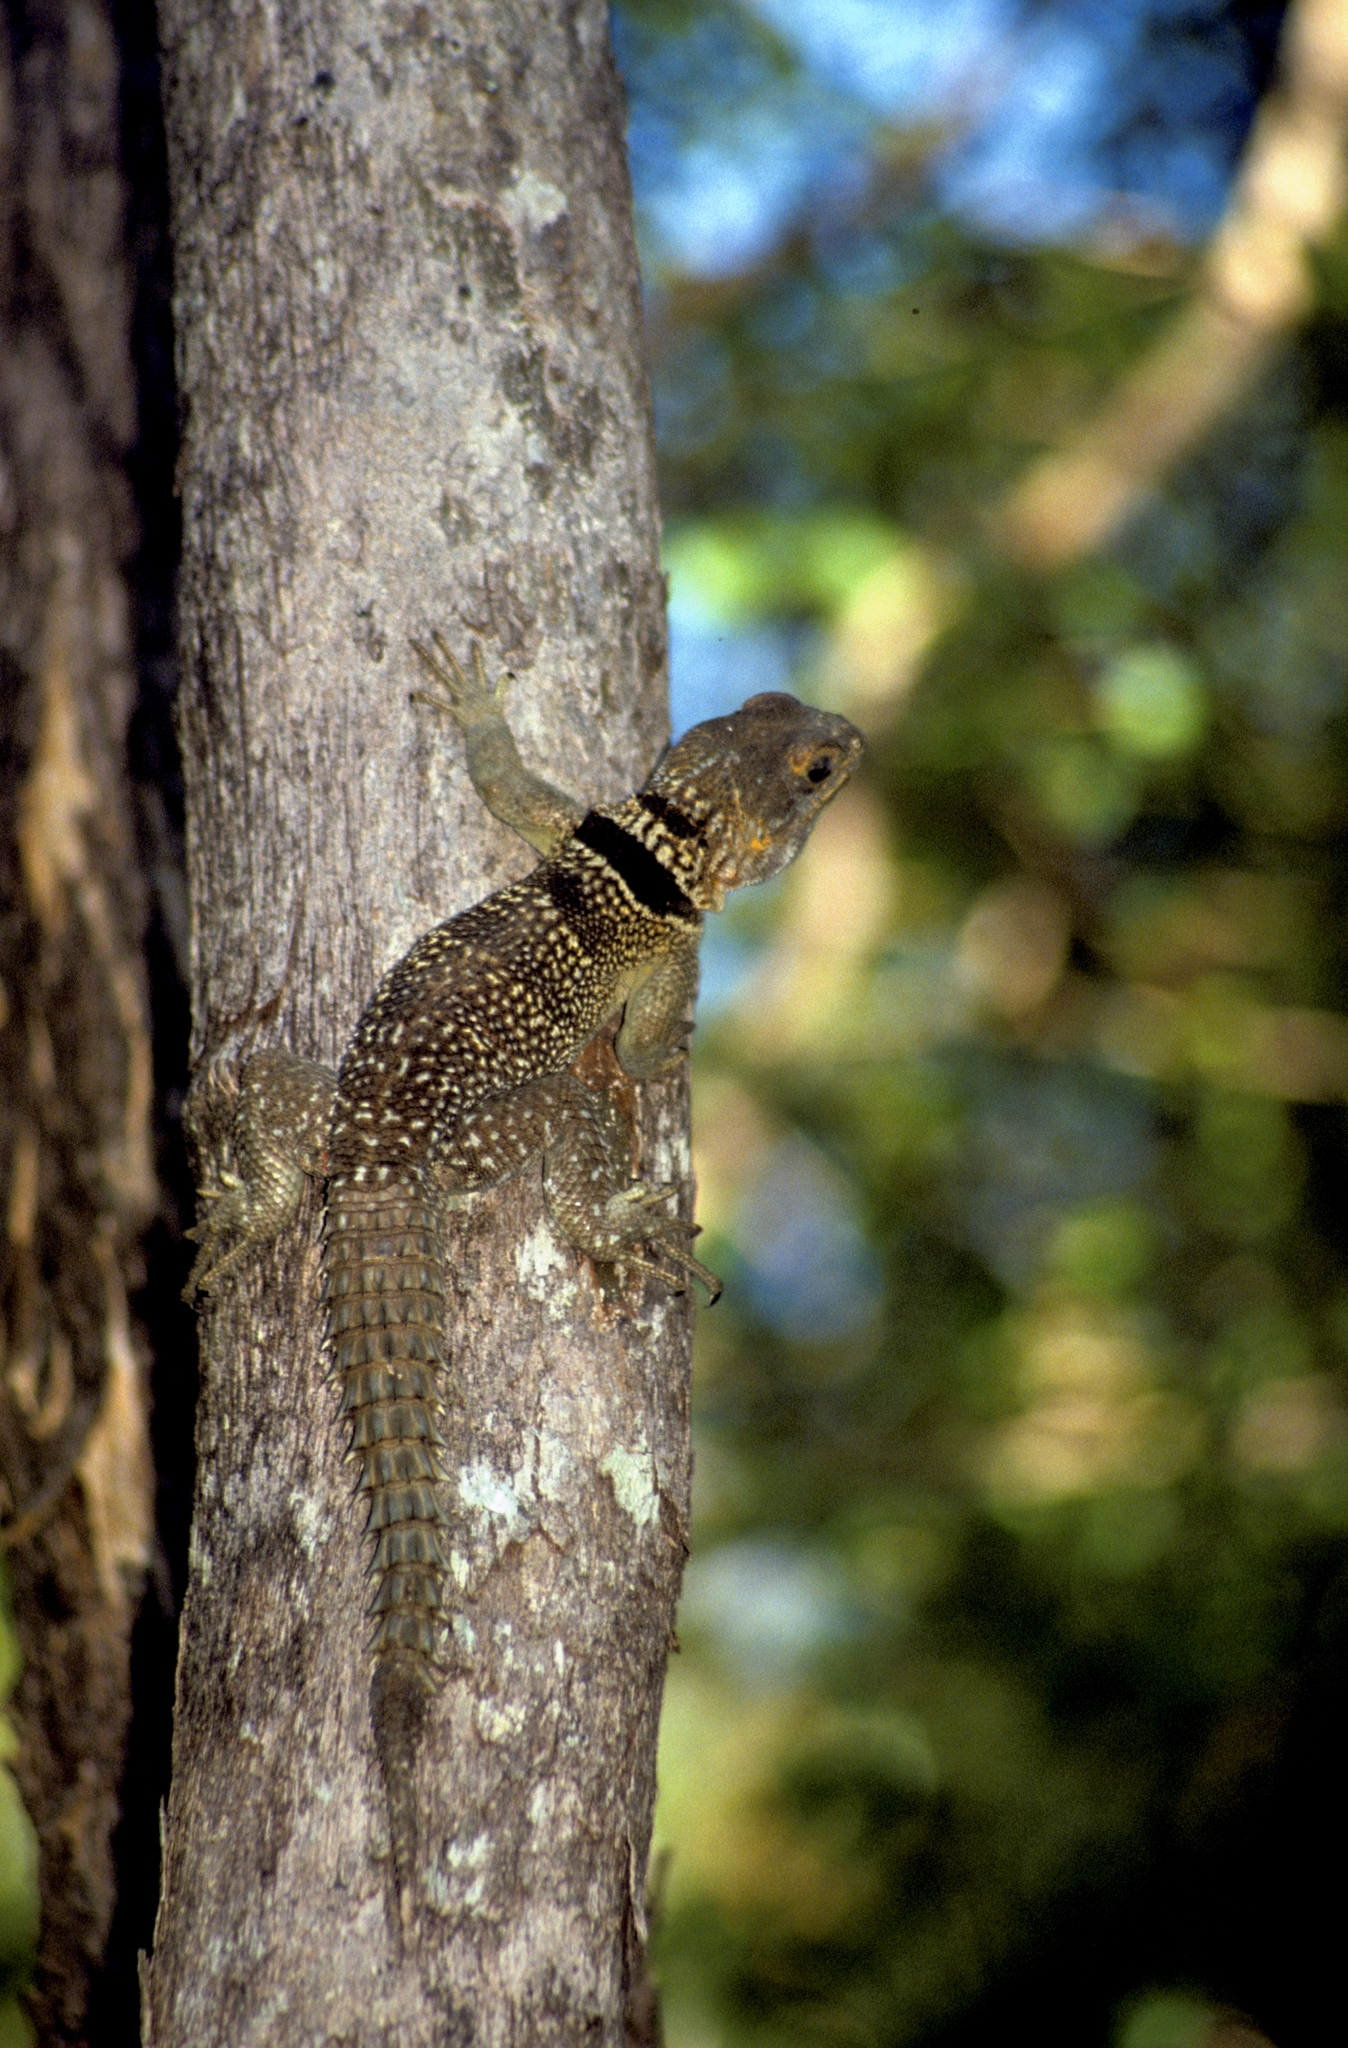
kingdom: Animalia
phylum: Chordata
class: Squamata
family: Opluridae
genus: Oplurus
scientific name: Oplurus cuvieri
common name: Cuvier's madagascar swift
